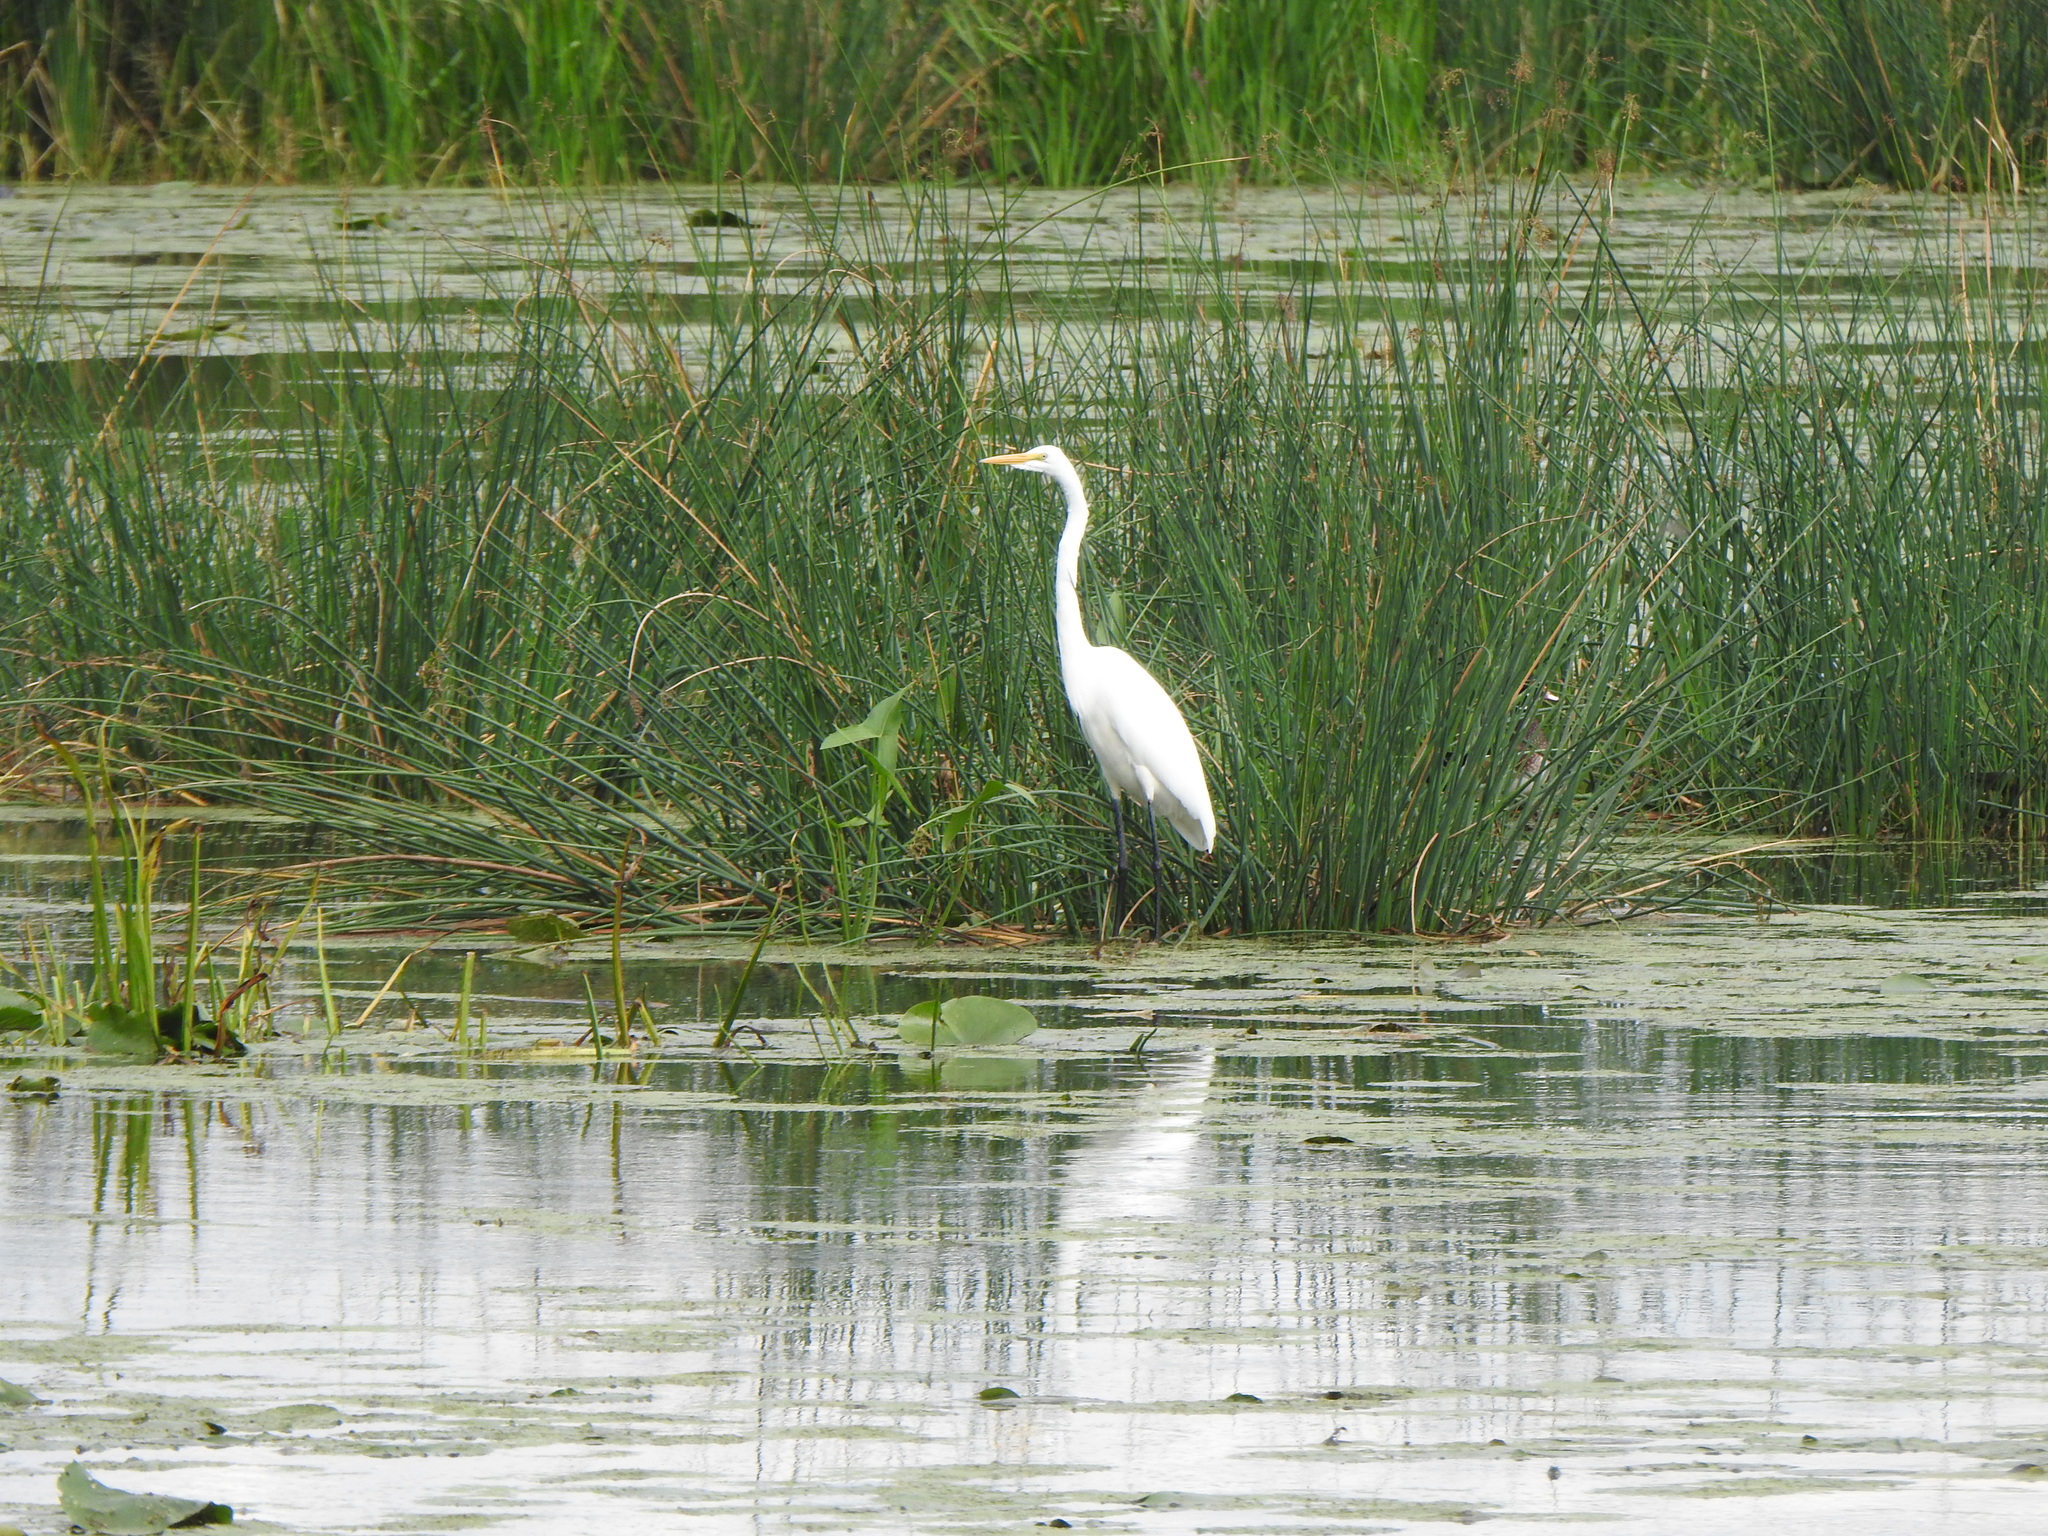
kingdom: Animalia
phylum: Chordata
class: Aves
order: Pelecaniformes
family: Ardeidae
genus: Ardea
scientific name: Ardea alba
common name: Great egret
